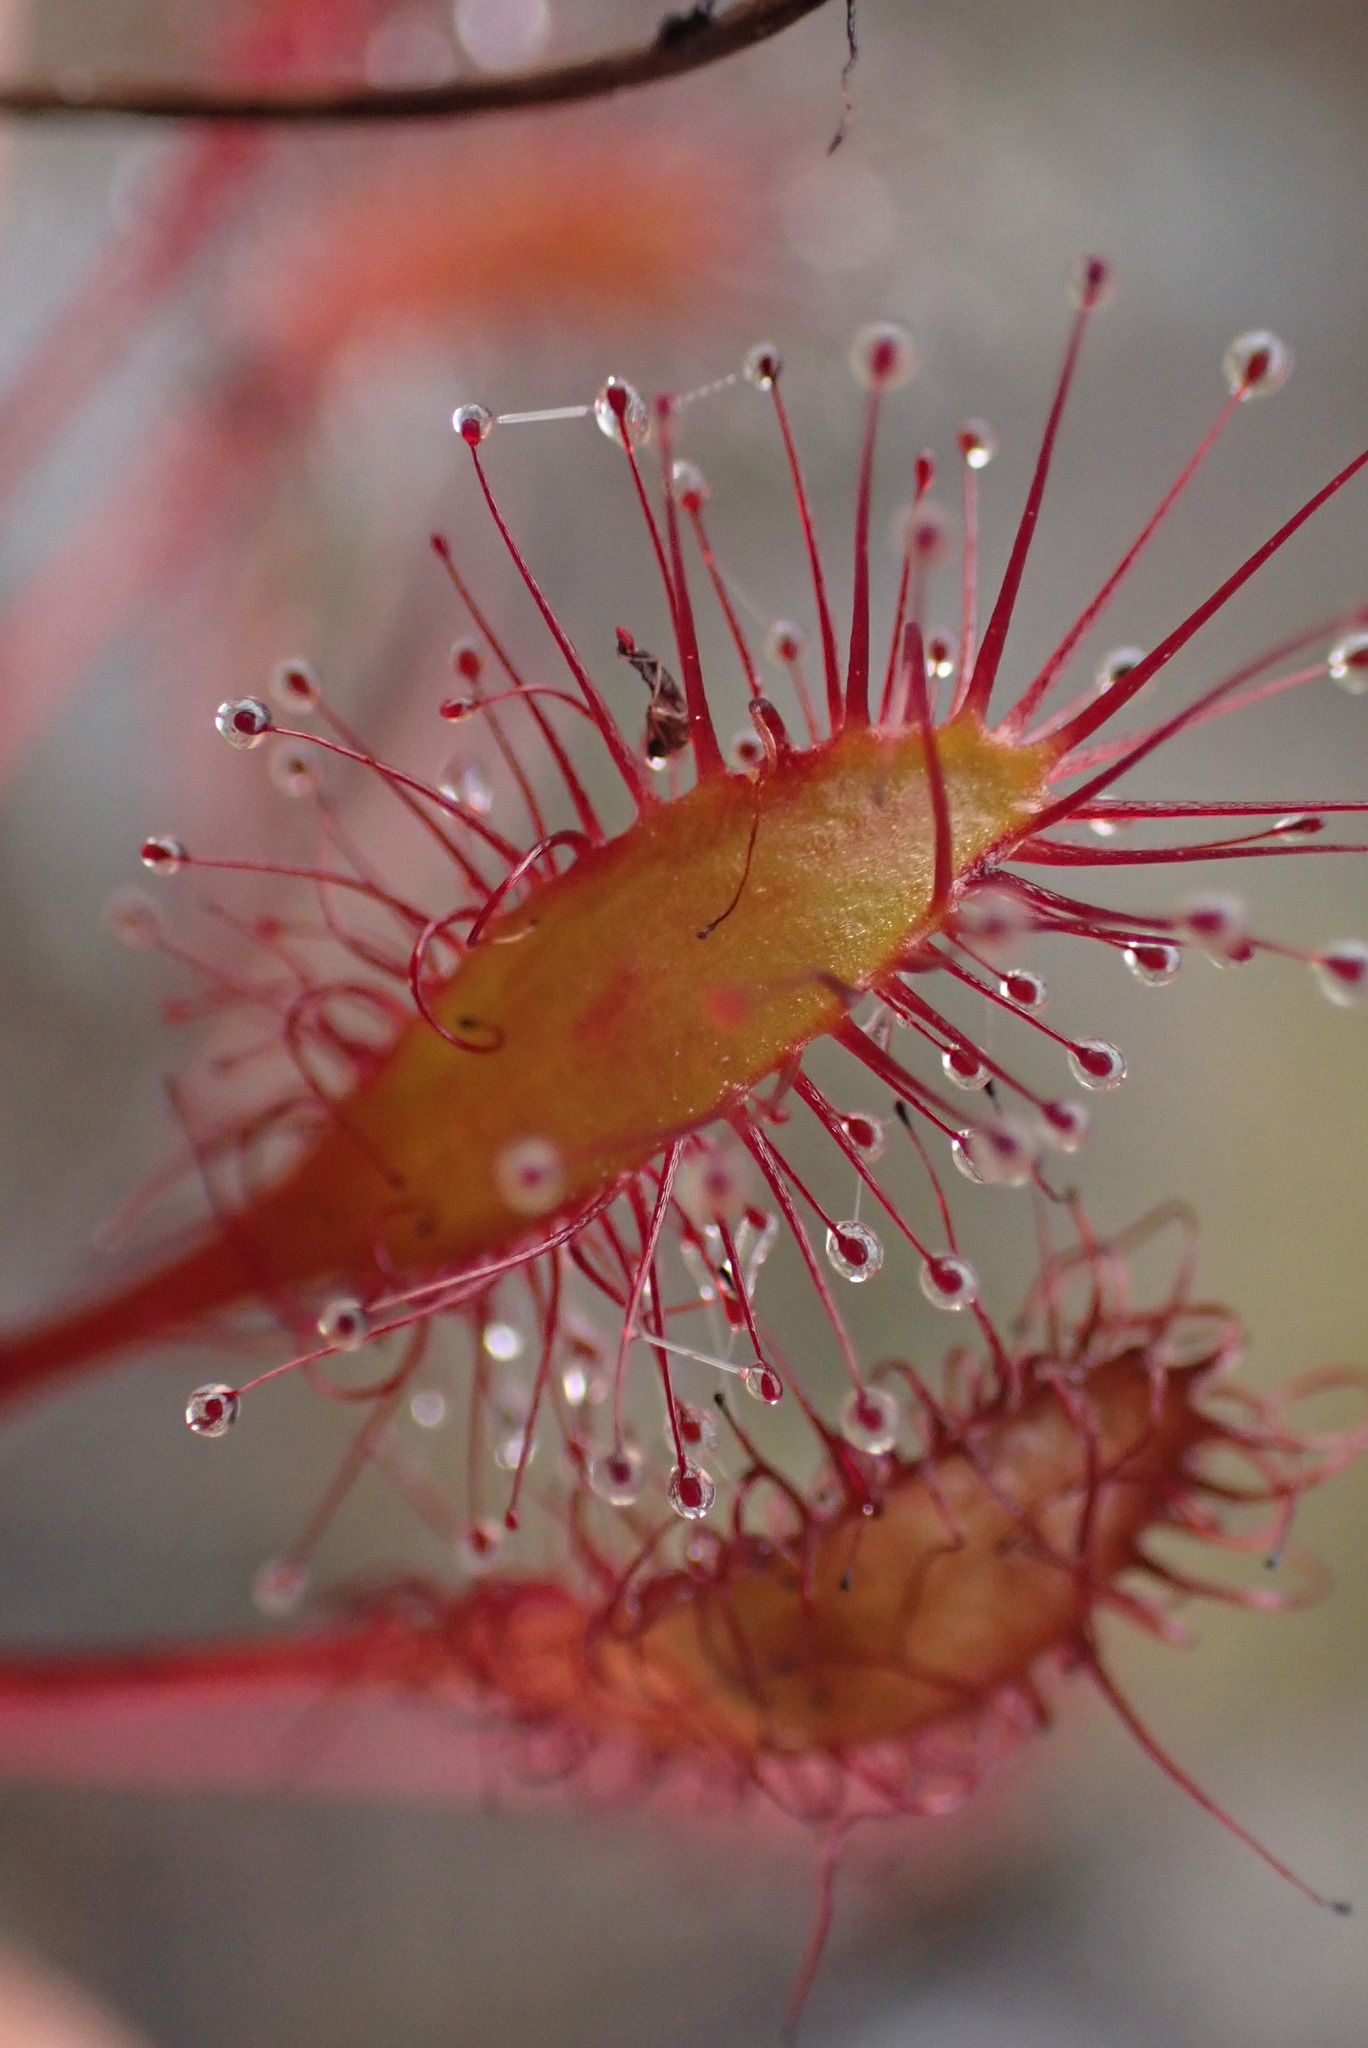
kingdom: Plantae
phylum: Tracheophyta
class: Magnoliopsida
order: Caryophyllales
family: Droseraceae
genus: Drosera
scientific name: Drosera anglica
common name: Great sundew
